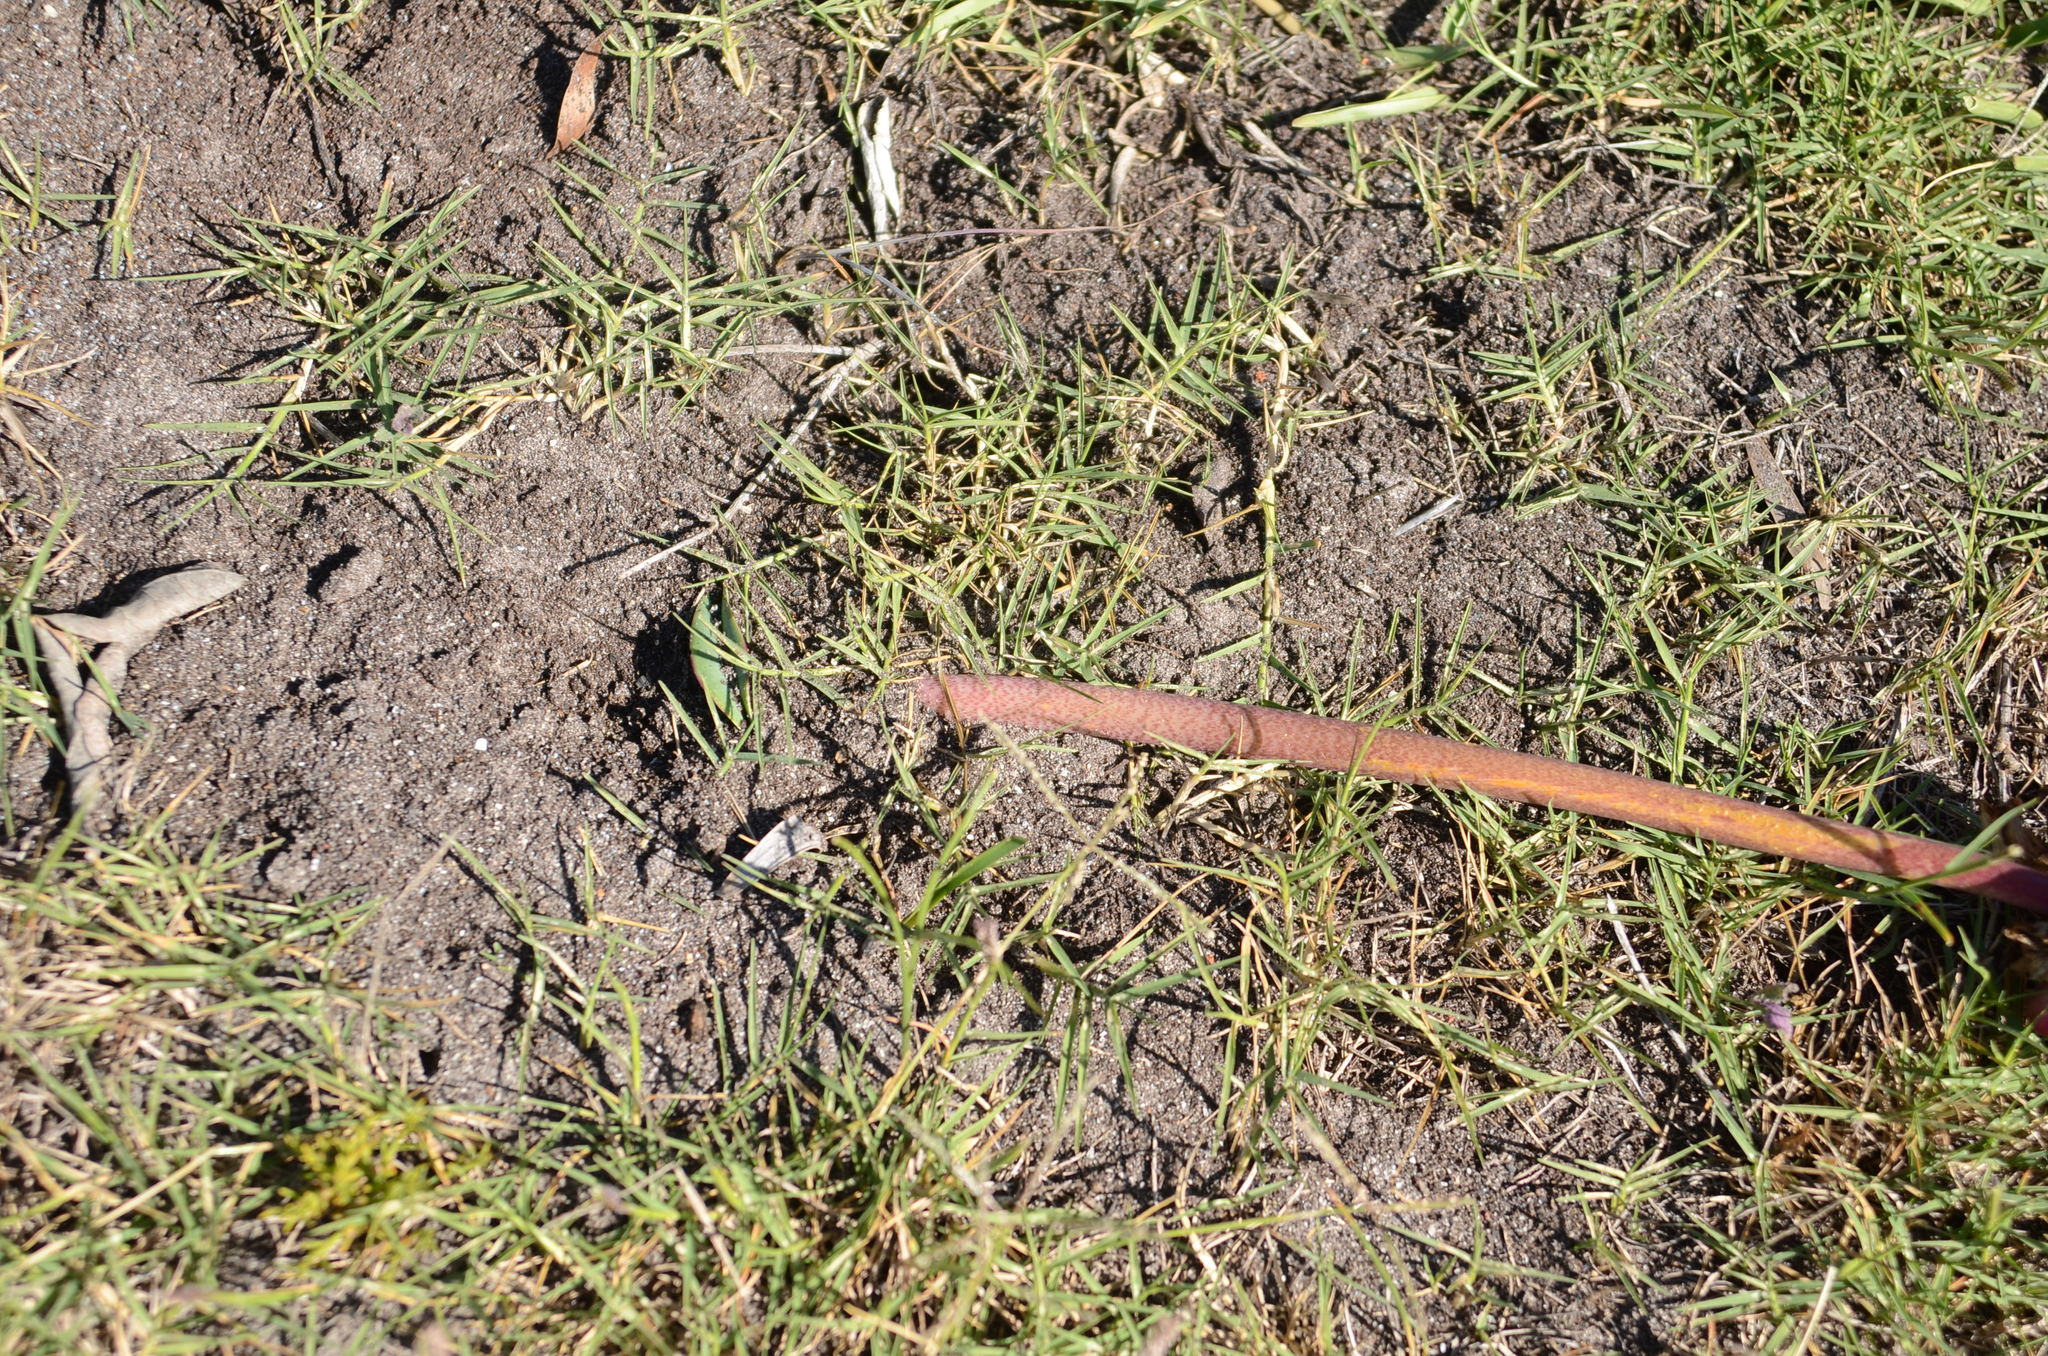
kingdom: Plantae
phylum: Tracheophyta
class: Liliopsida
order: Asparagales
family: Amaryllidaceae
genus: Haemanthus
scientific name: Haemanthus coccineus
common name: Cape-tulip
